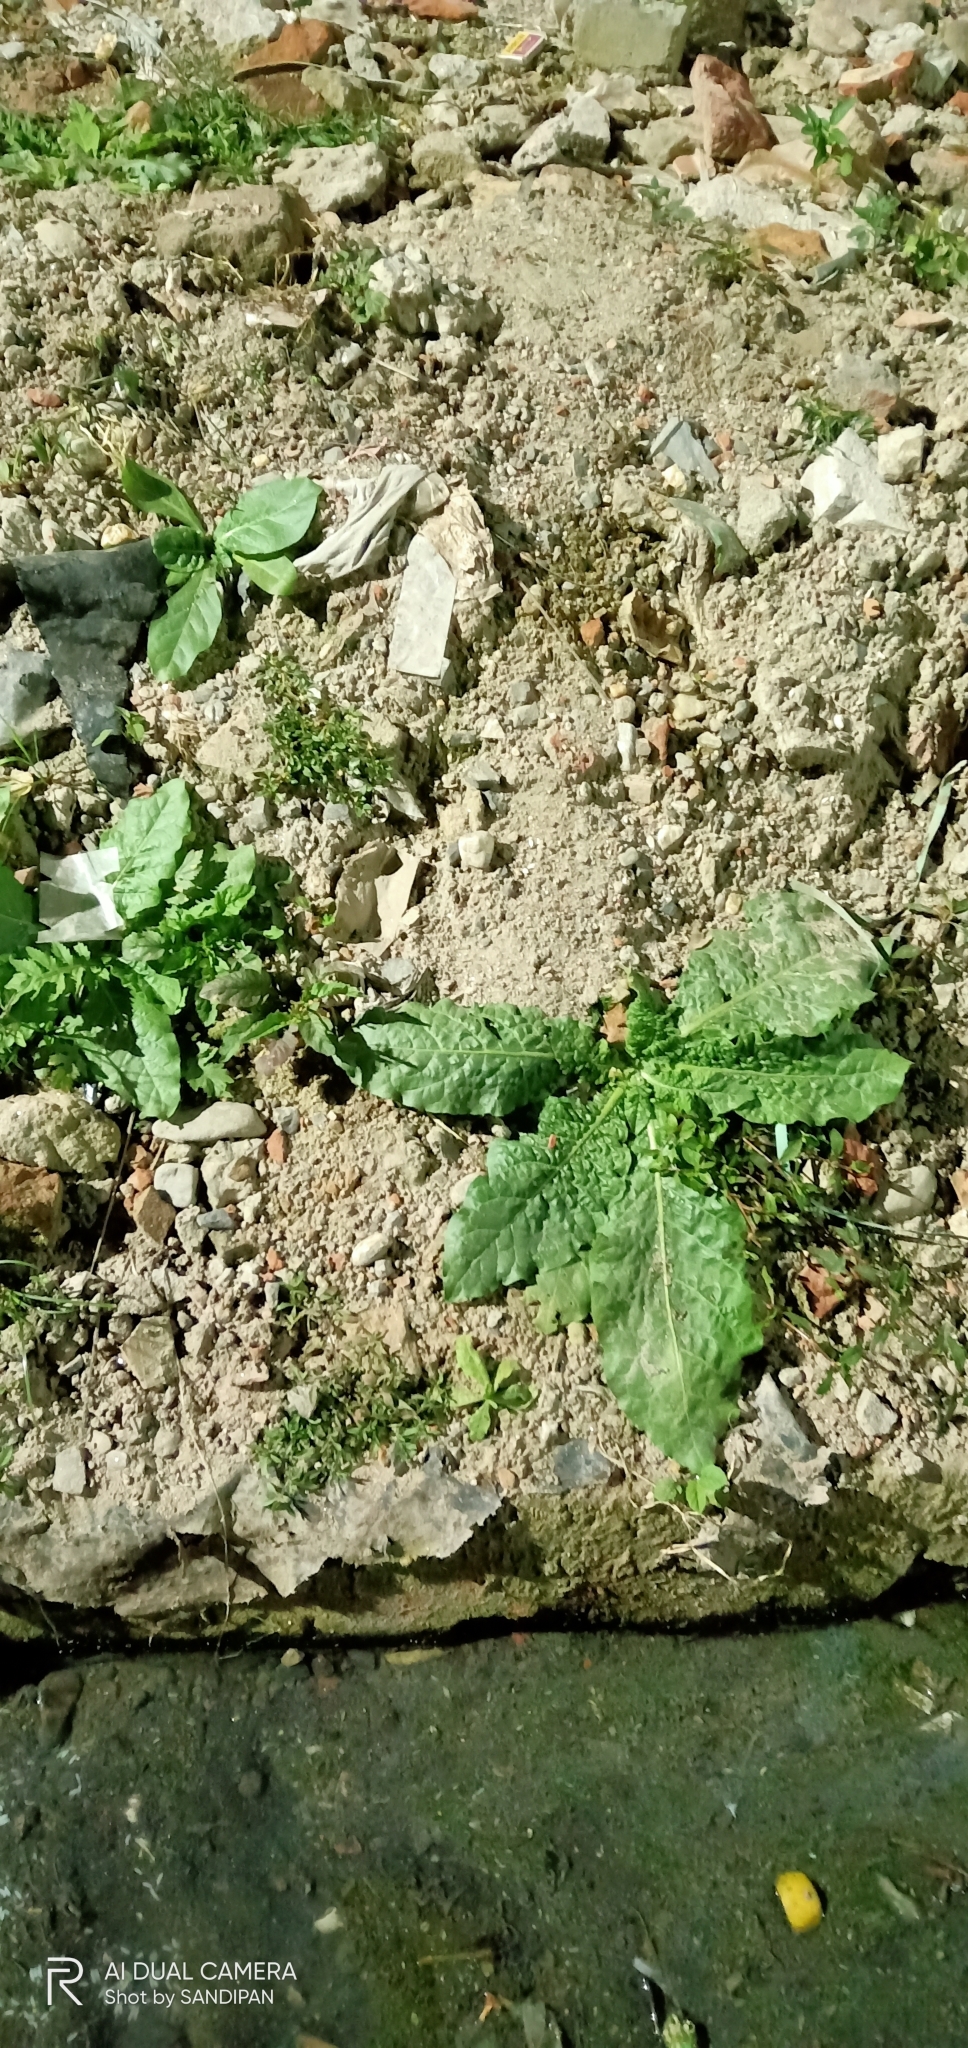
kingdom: Plantae
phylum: Tracheophyta
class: Magnoliopsida
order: Solanales
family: Solanaceae
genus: Nicotiana
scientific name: Nicotiana plumbaginifolia
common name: Tex-mex tobacco
